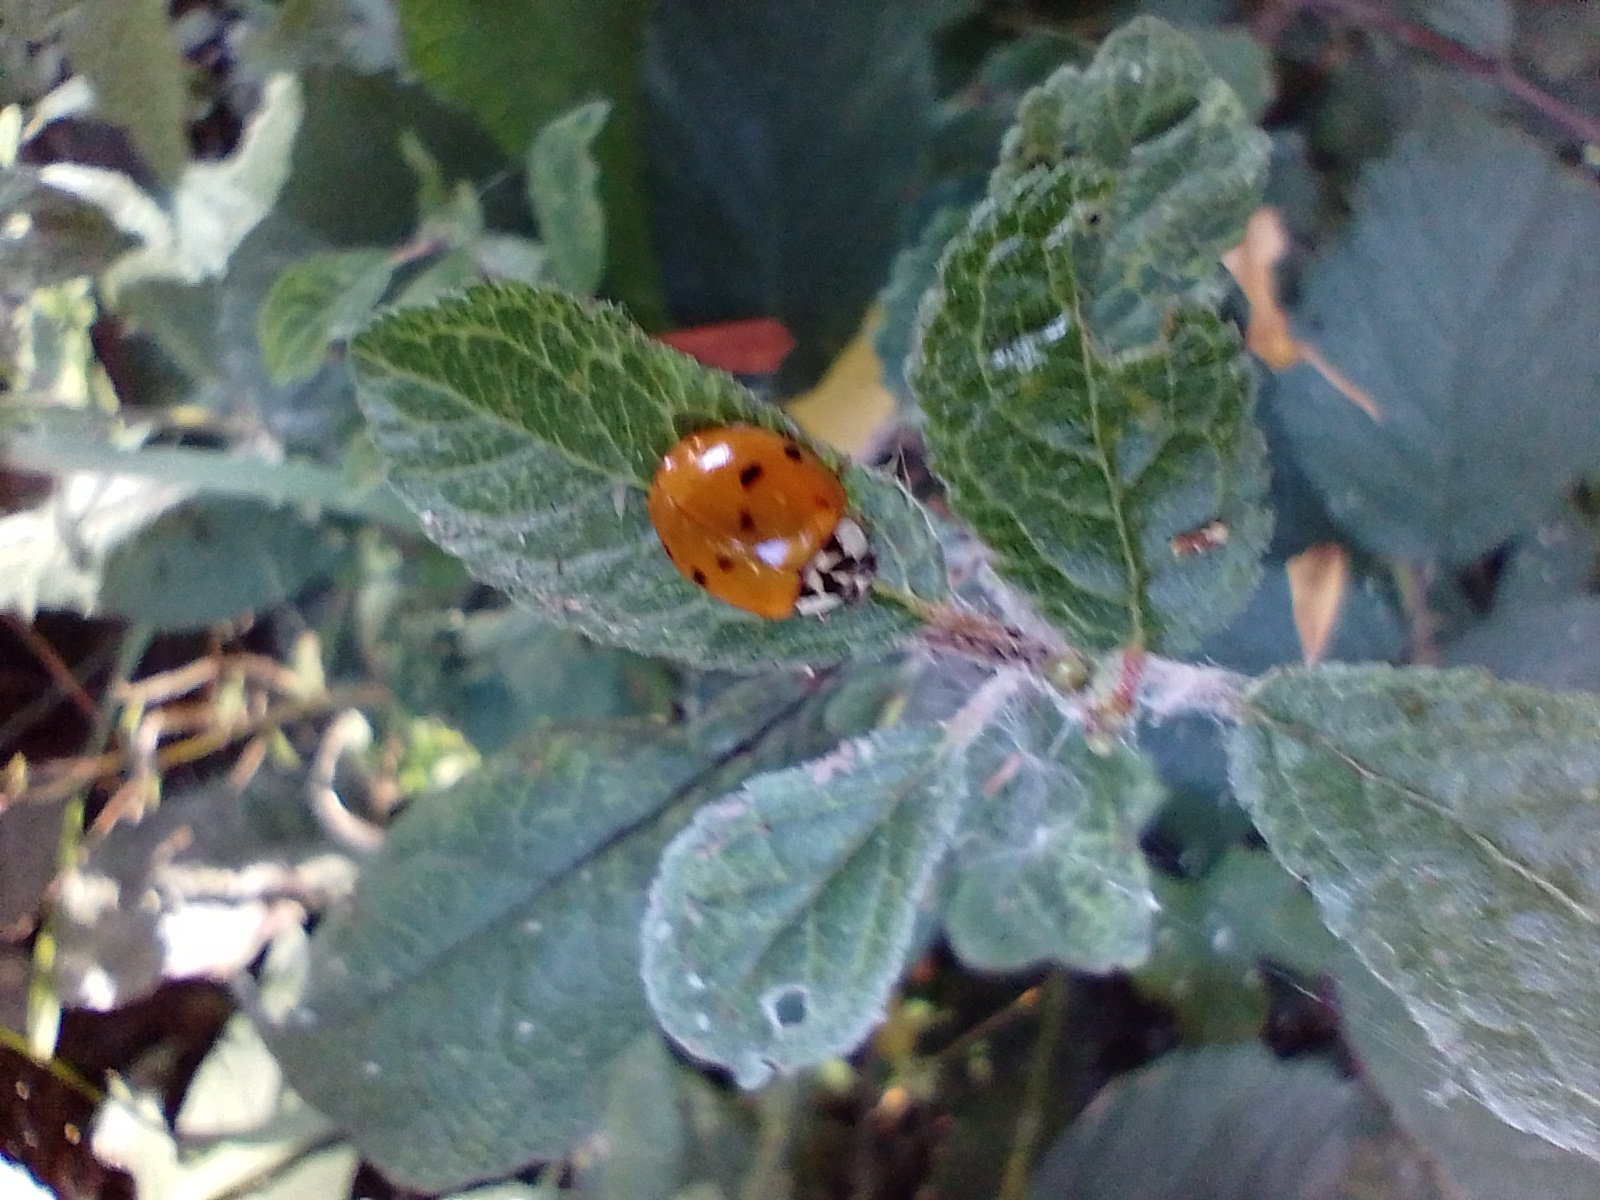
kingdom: Animalia
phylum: Arthropoda
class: Insecta
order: Coleoptera
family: Coccinellidae
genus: Harmonia
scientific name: Harmonia axyridis
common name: Harlequin ladybird
